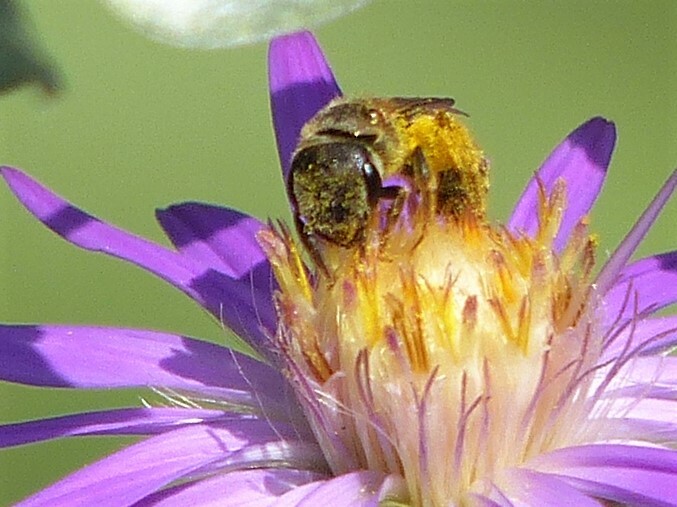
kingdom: Animalia
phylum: Arthropoda
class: Insecta
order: Hymenoptera
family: Halictidae
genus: Halictus
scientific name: Halictus ligatus
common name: Ligated furrow bee
